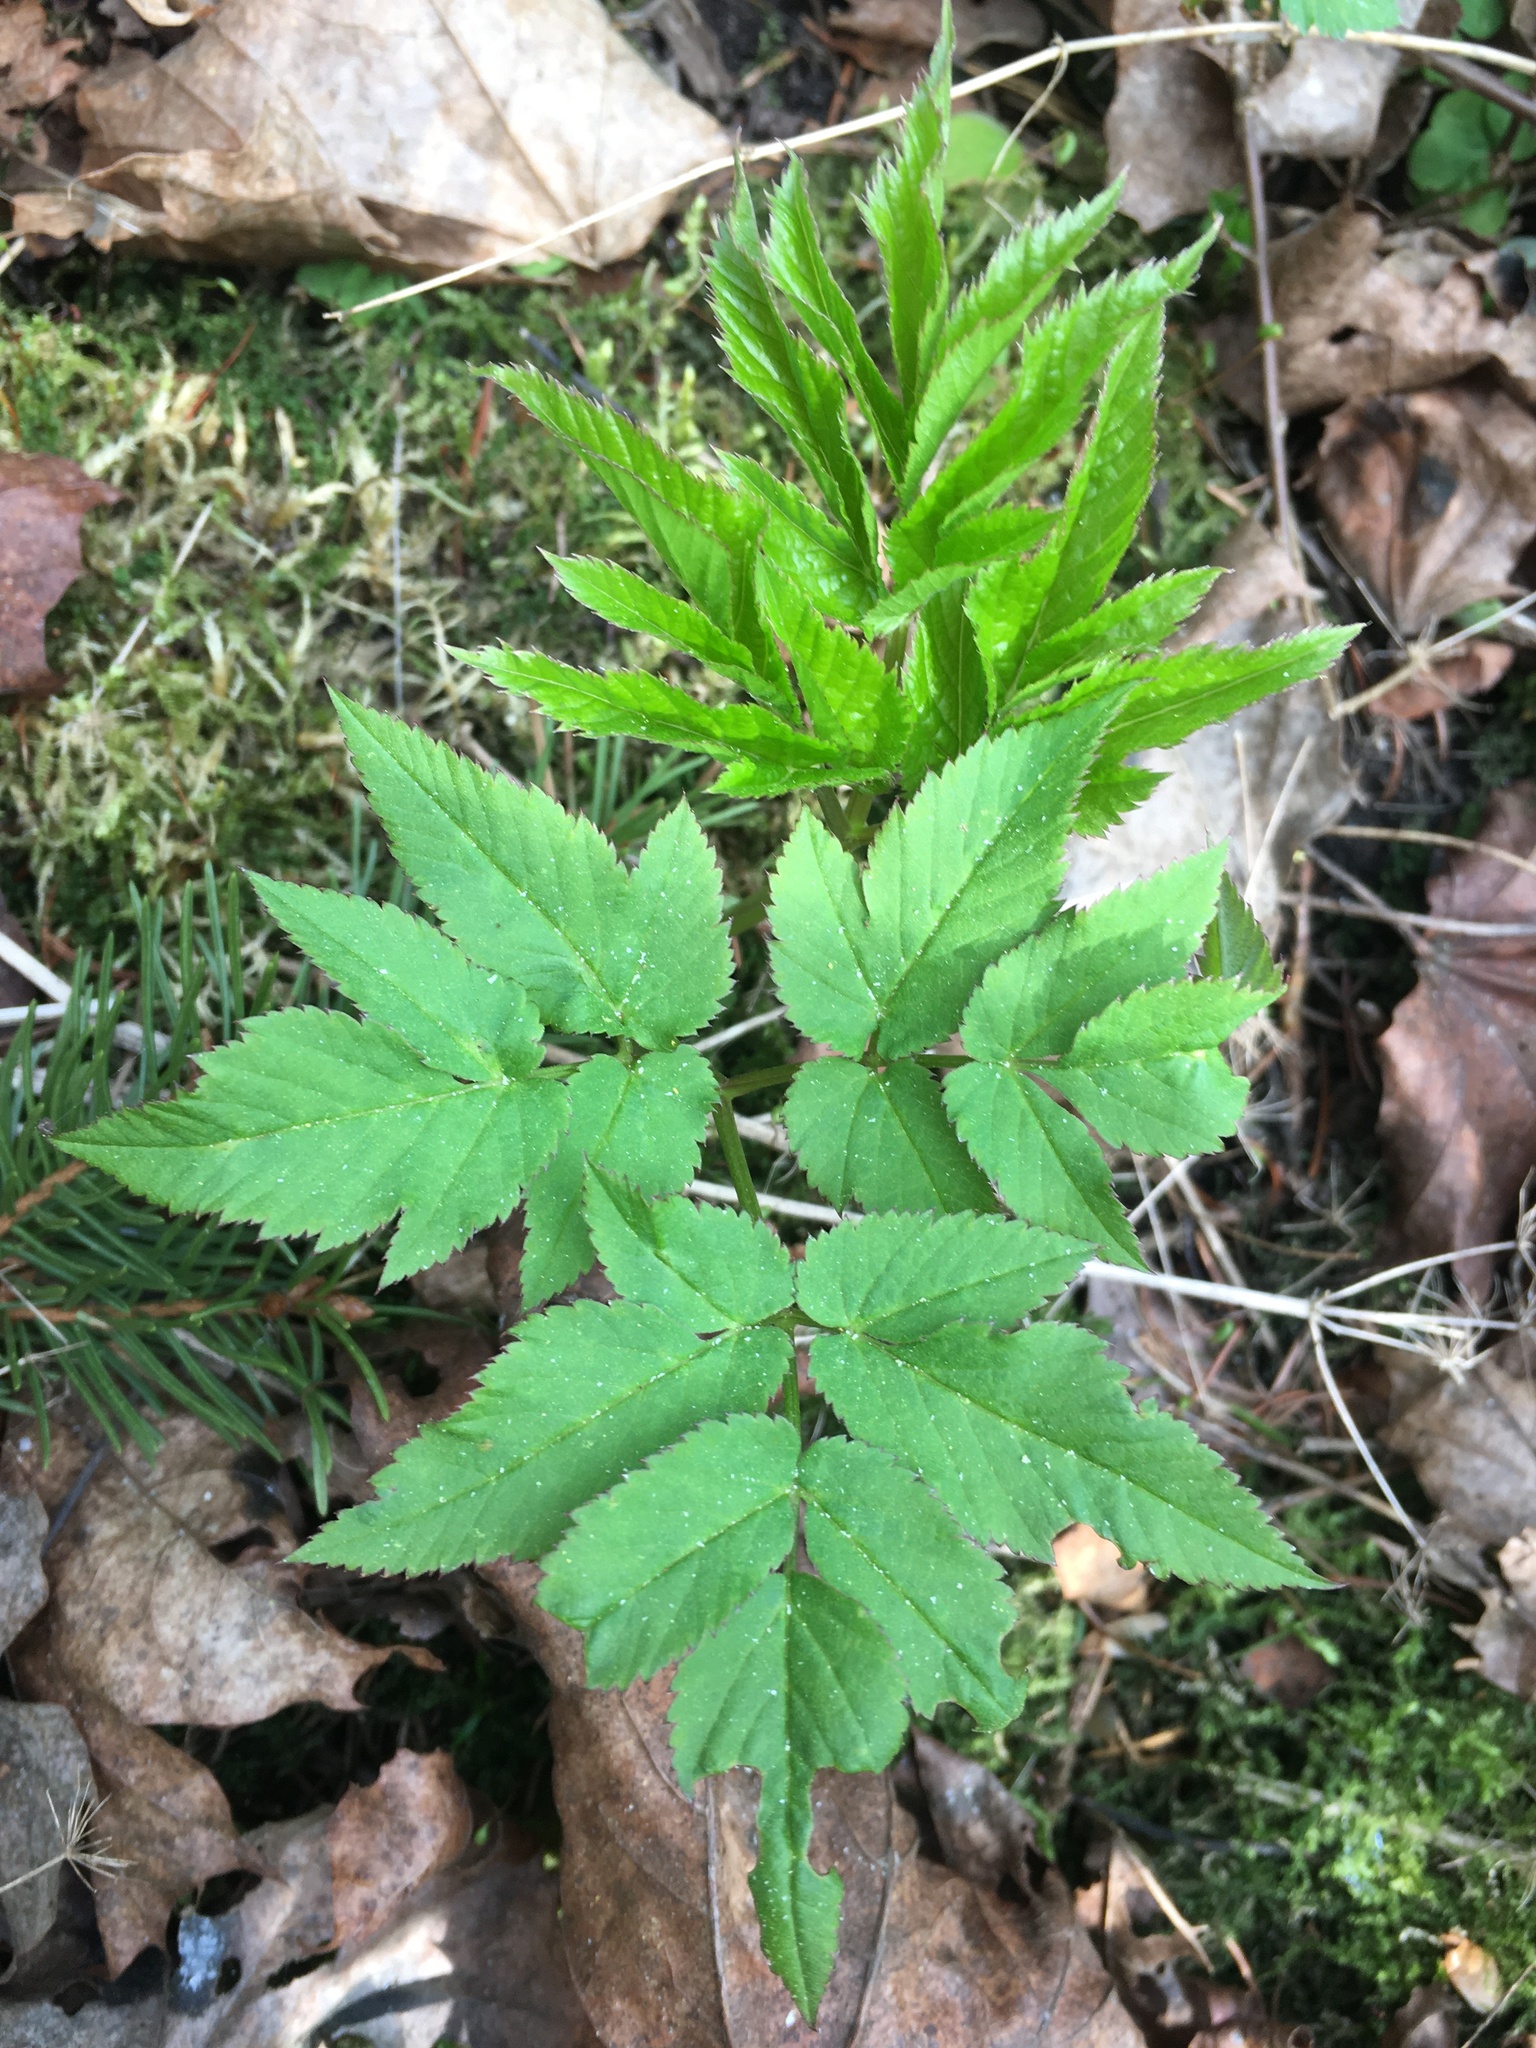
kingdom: Plantae
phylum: Tracheophyta
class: Magnoliopsida
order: Apiales
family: Apiaceae
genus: Aegopodium
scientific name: Aegopodium podagraria
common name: Ground-elder
